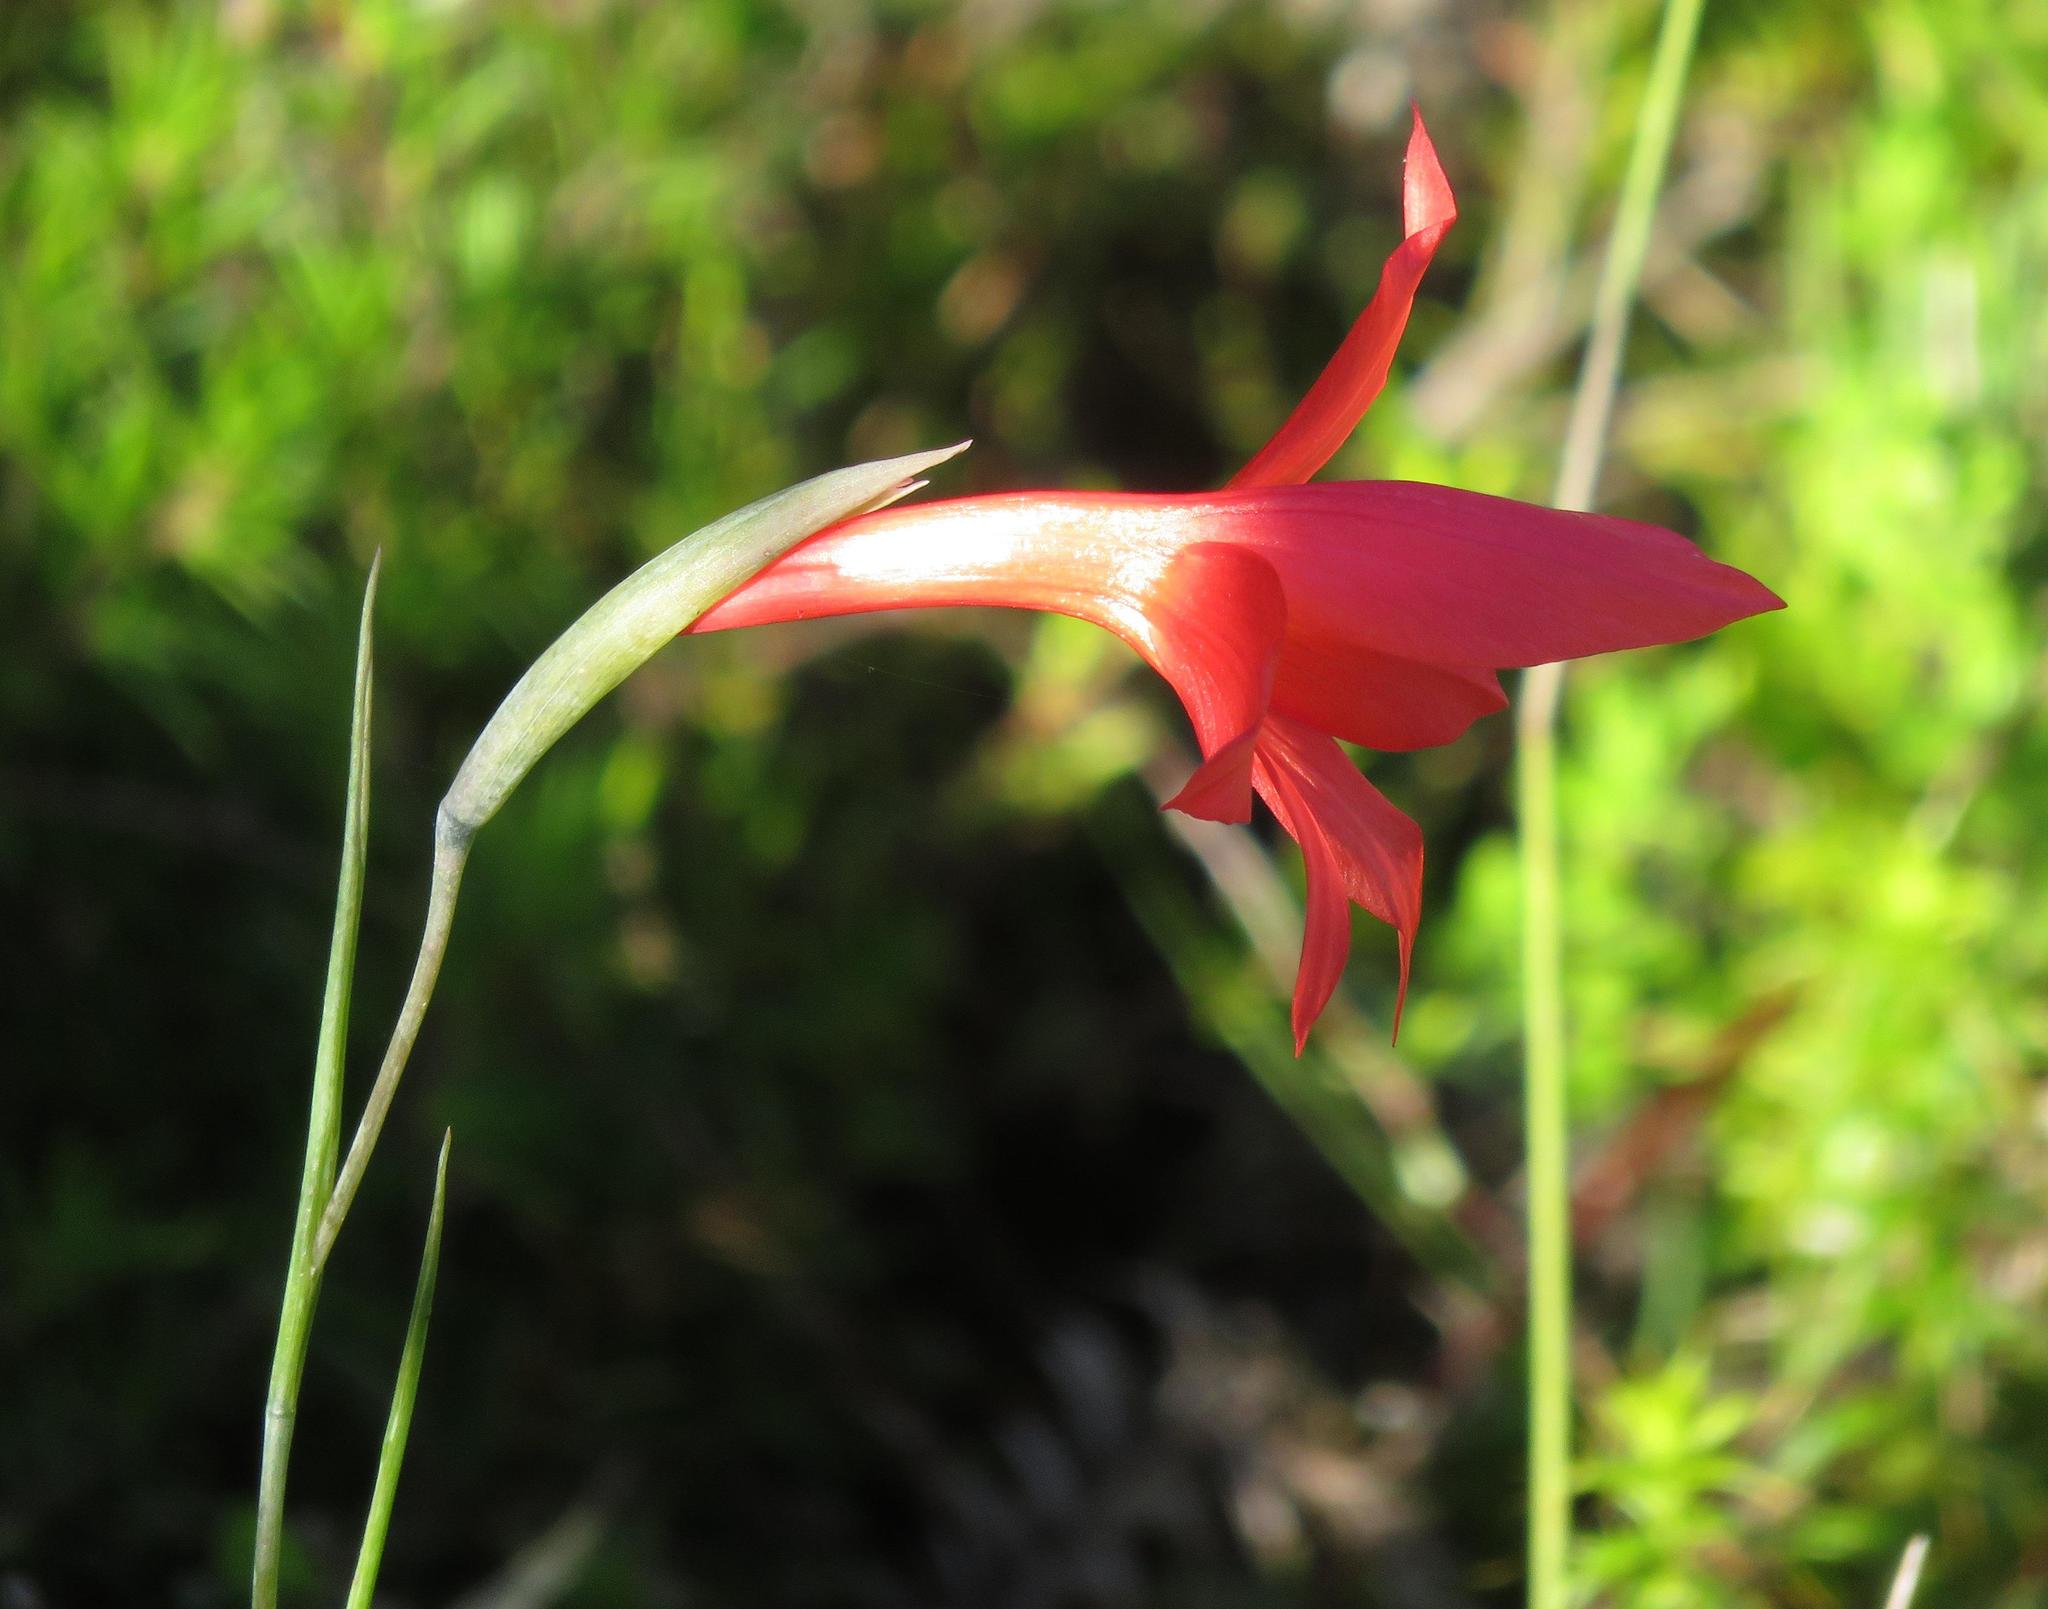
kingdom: Plantae
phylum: Tracheophyta
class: Liliopsida
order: Asparagales
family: Iridaceae
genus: Gladiolus
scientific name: Gladiolus priorii
